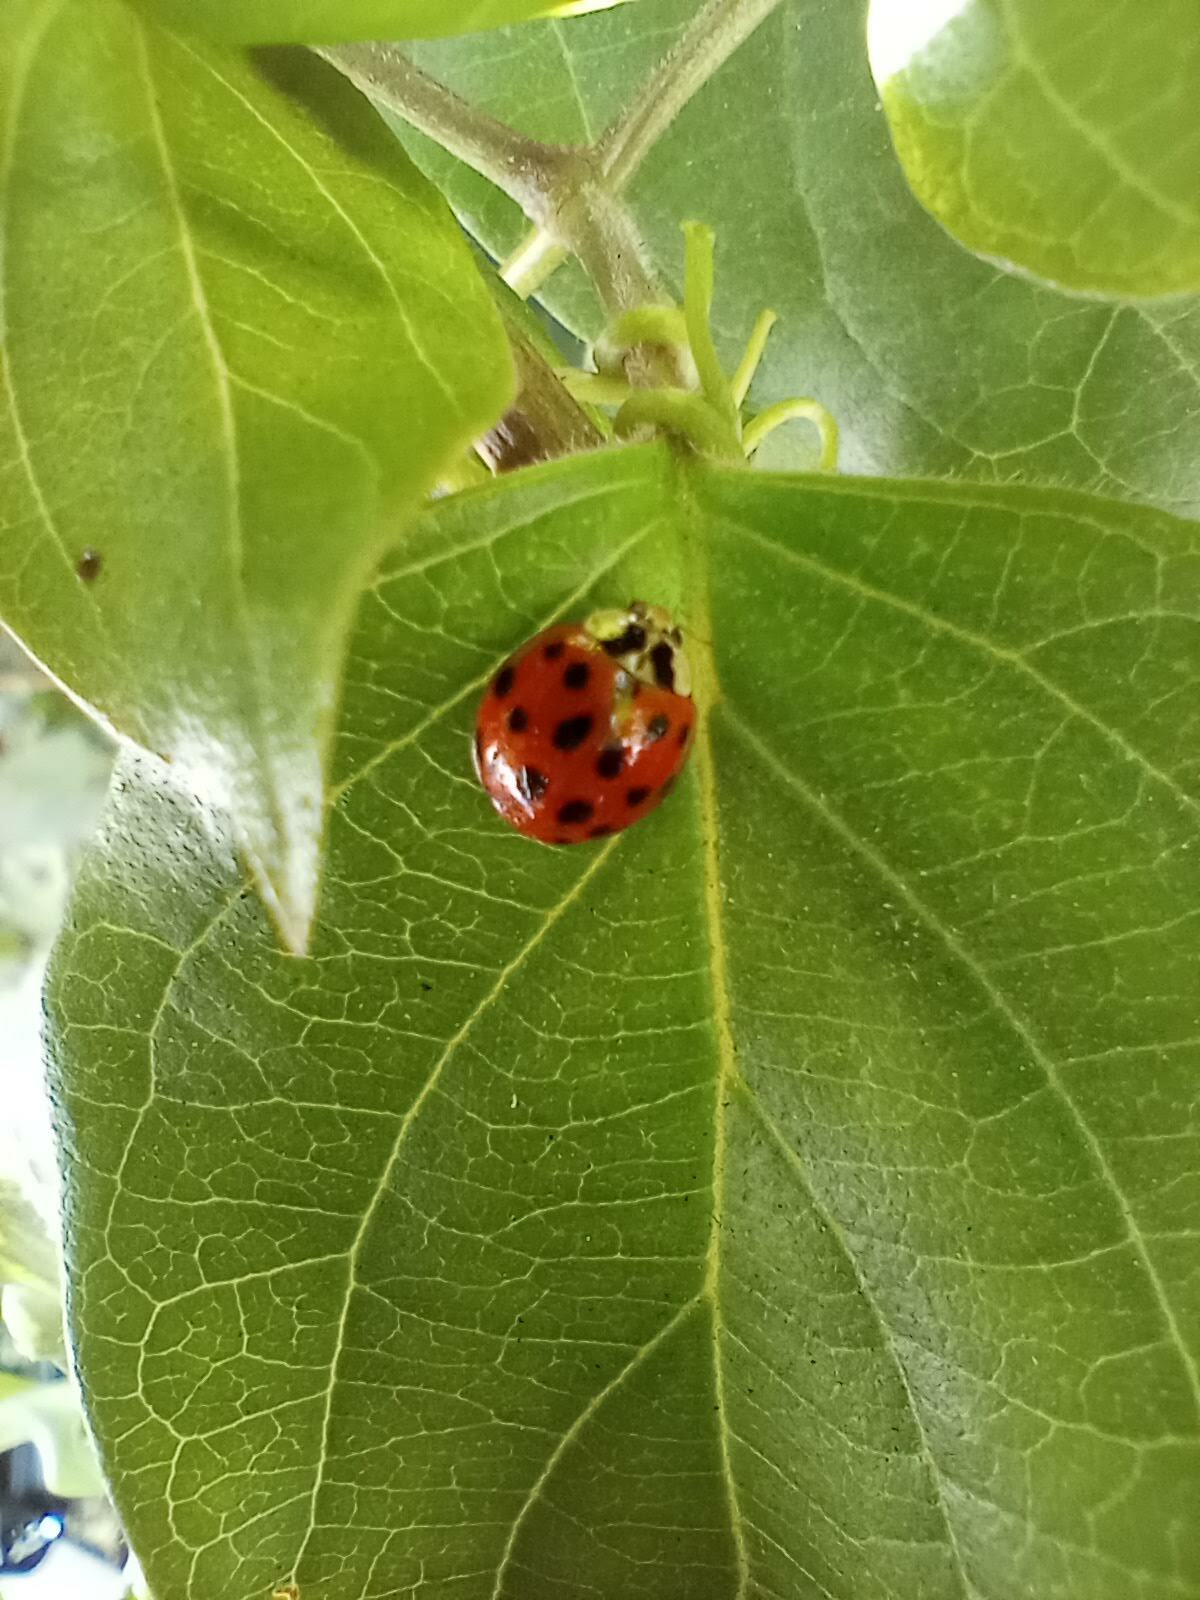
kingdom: Animalia
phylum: Arthropoda
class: Insecta
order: Coleoptera
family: Coccinellidae
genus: Harmonia
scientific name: Harmonia axyridis
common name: Harlequin ladybird
